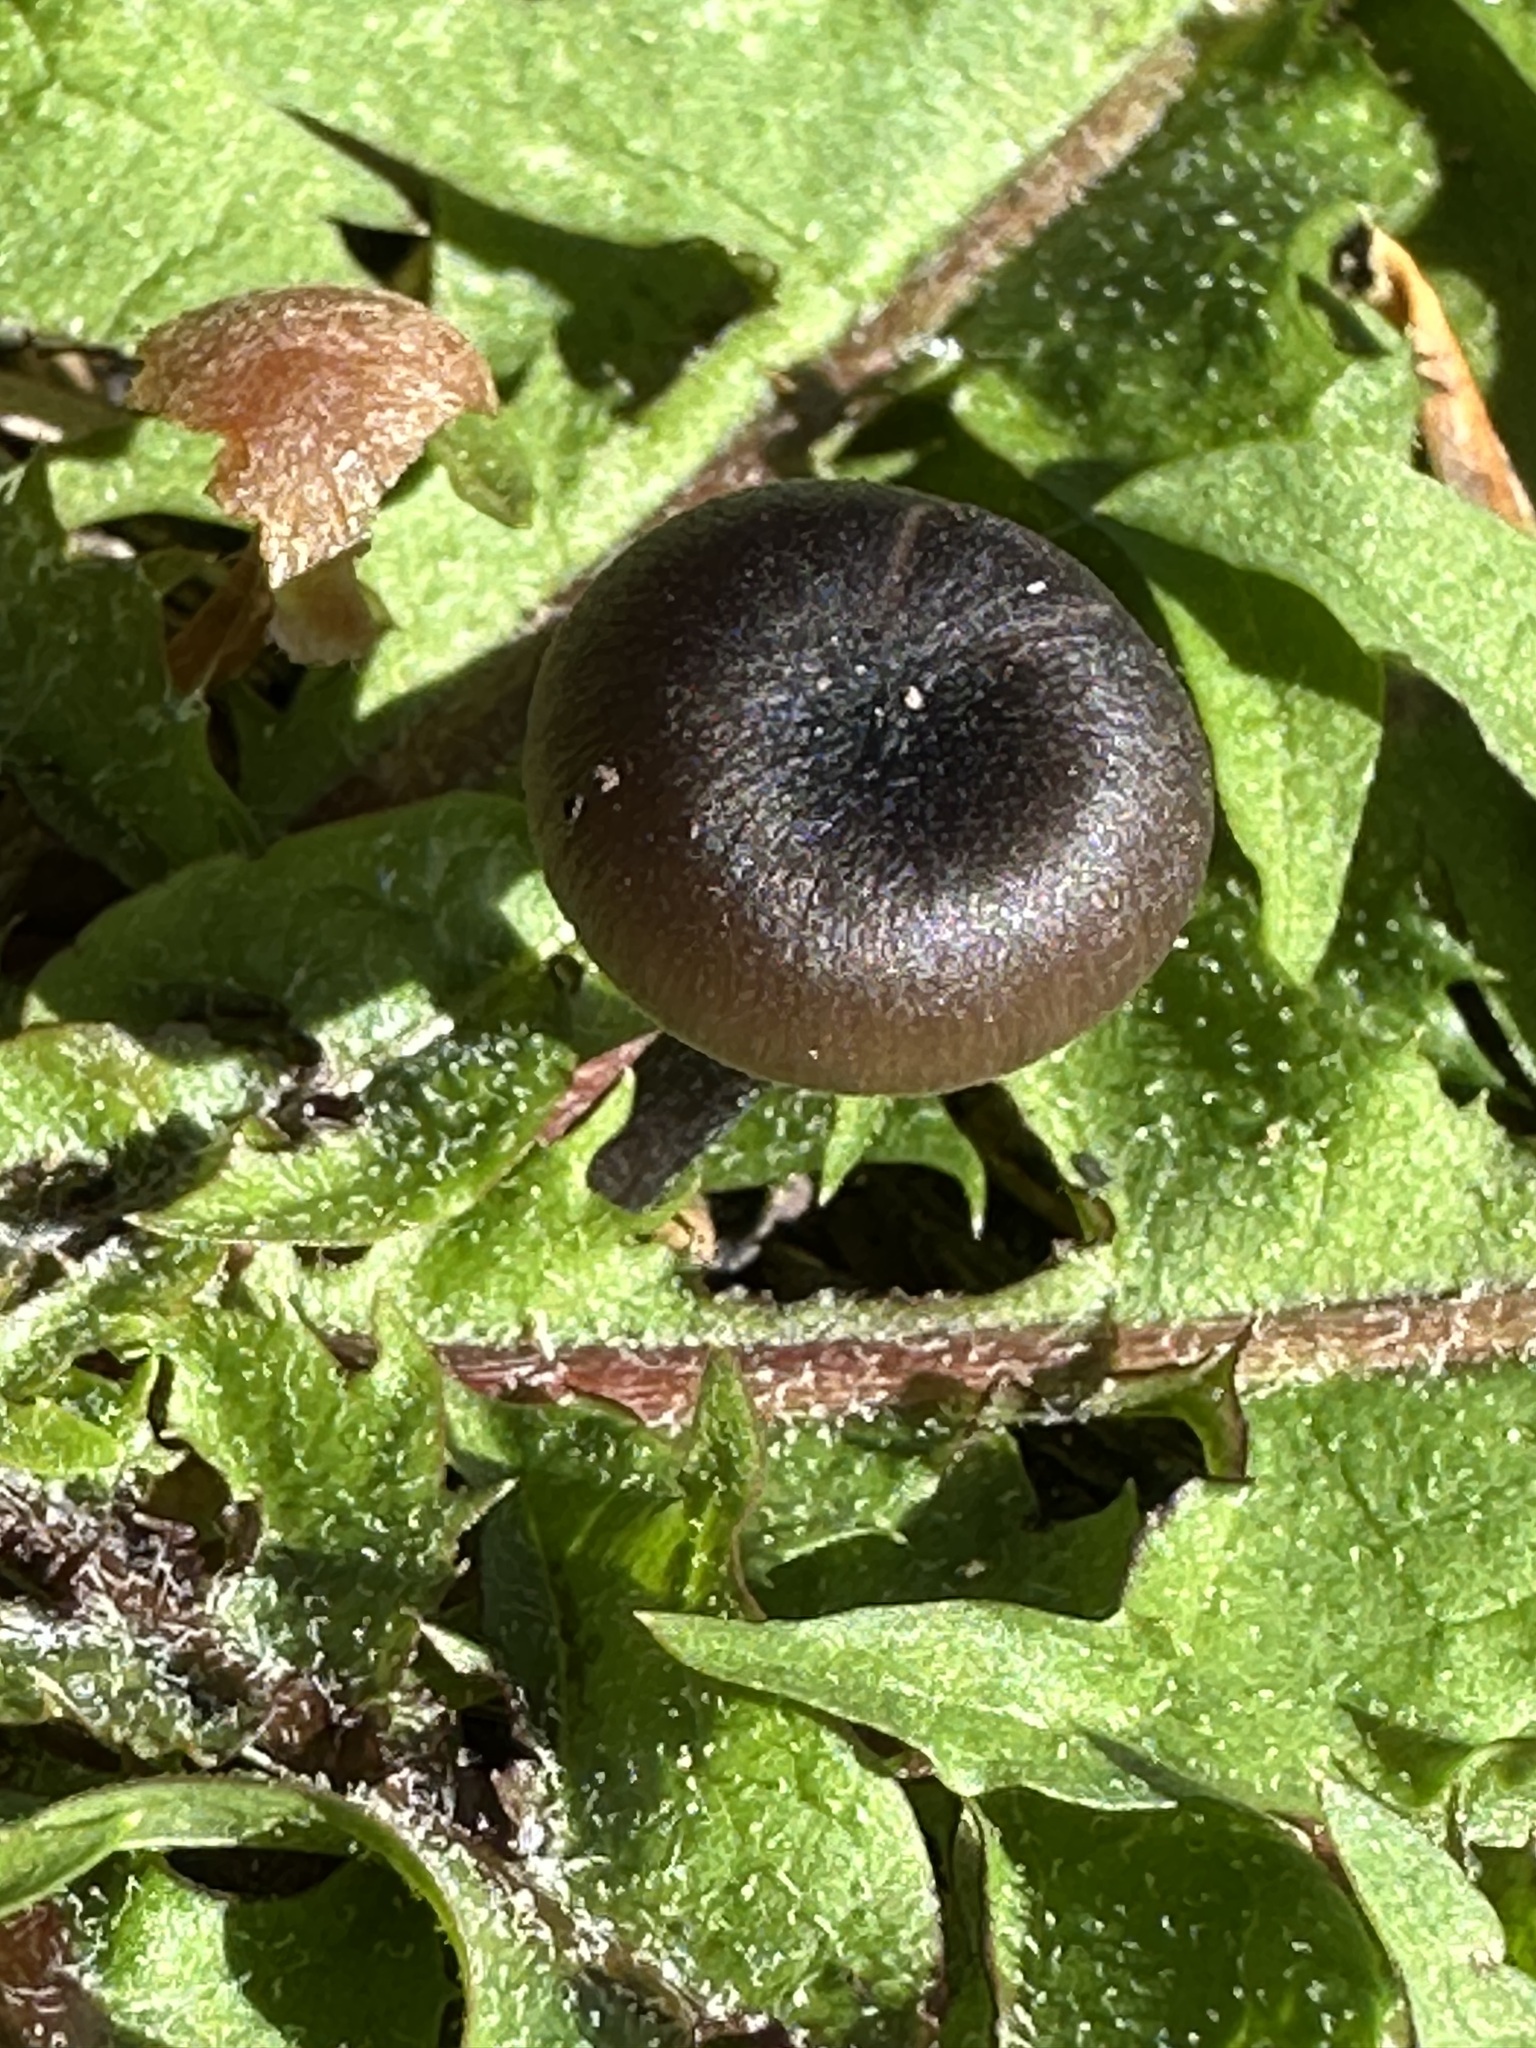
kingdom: Fungi
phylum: Basidiomycota
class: Agaricomycetes
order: Agaricales
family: Tricholomataceae
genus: Myxomphalia
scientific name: Myxomphalia maura
